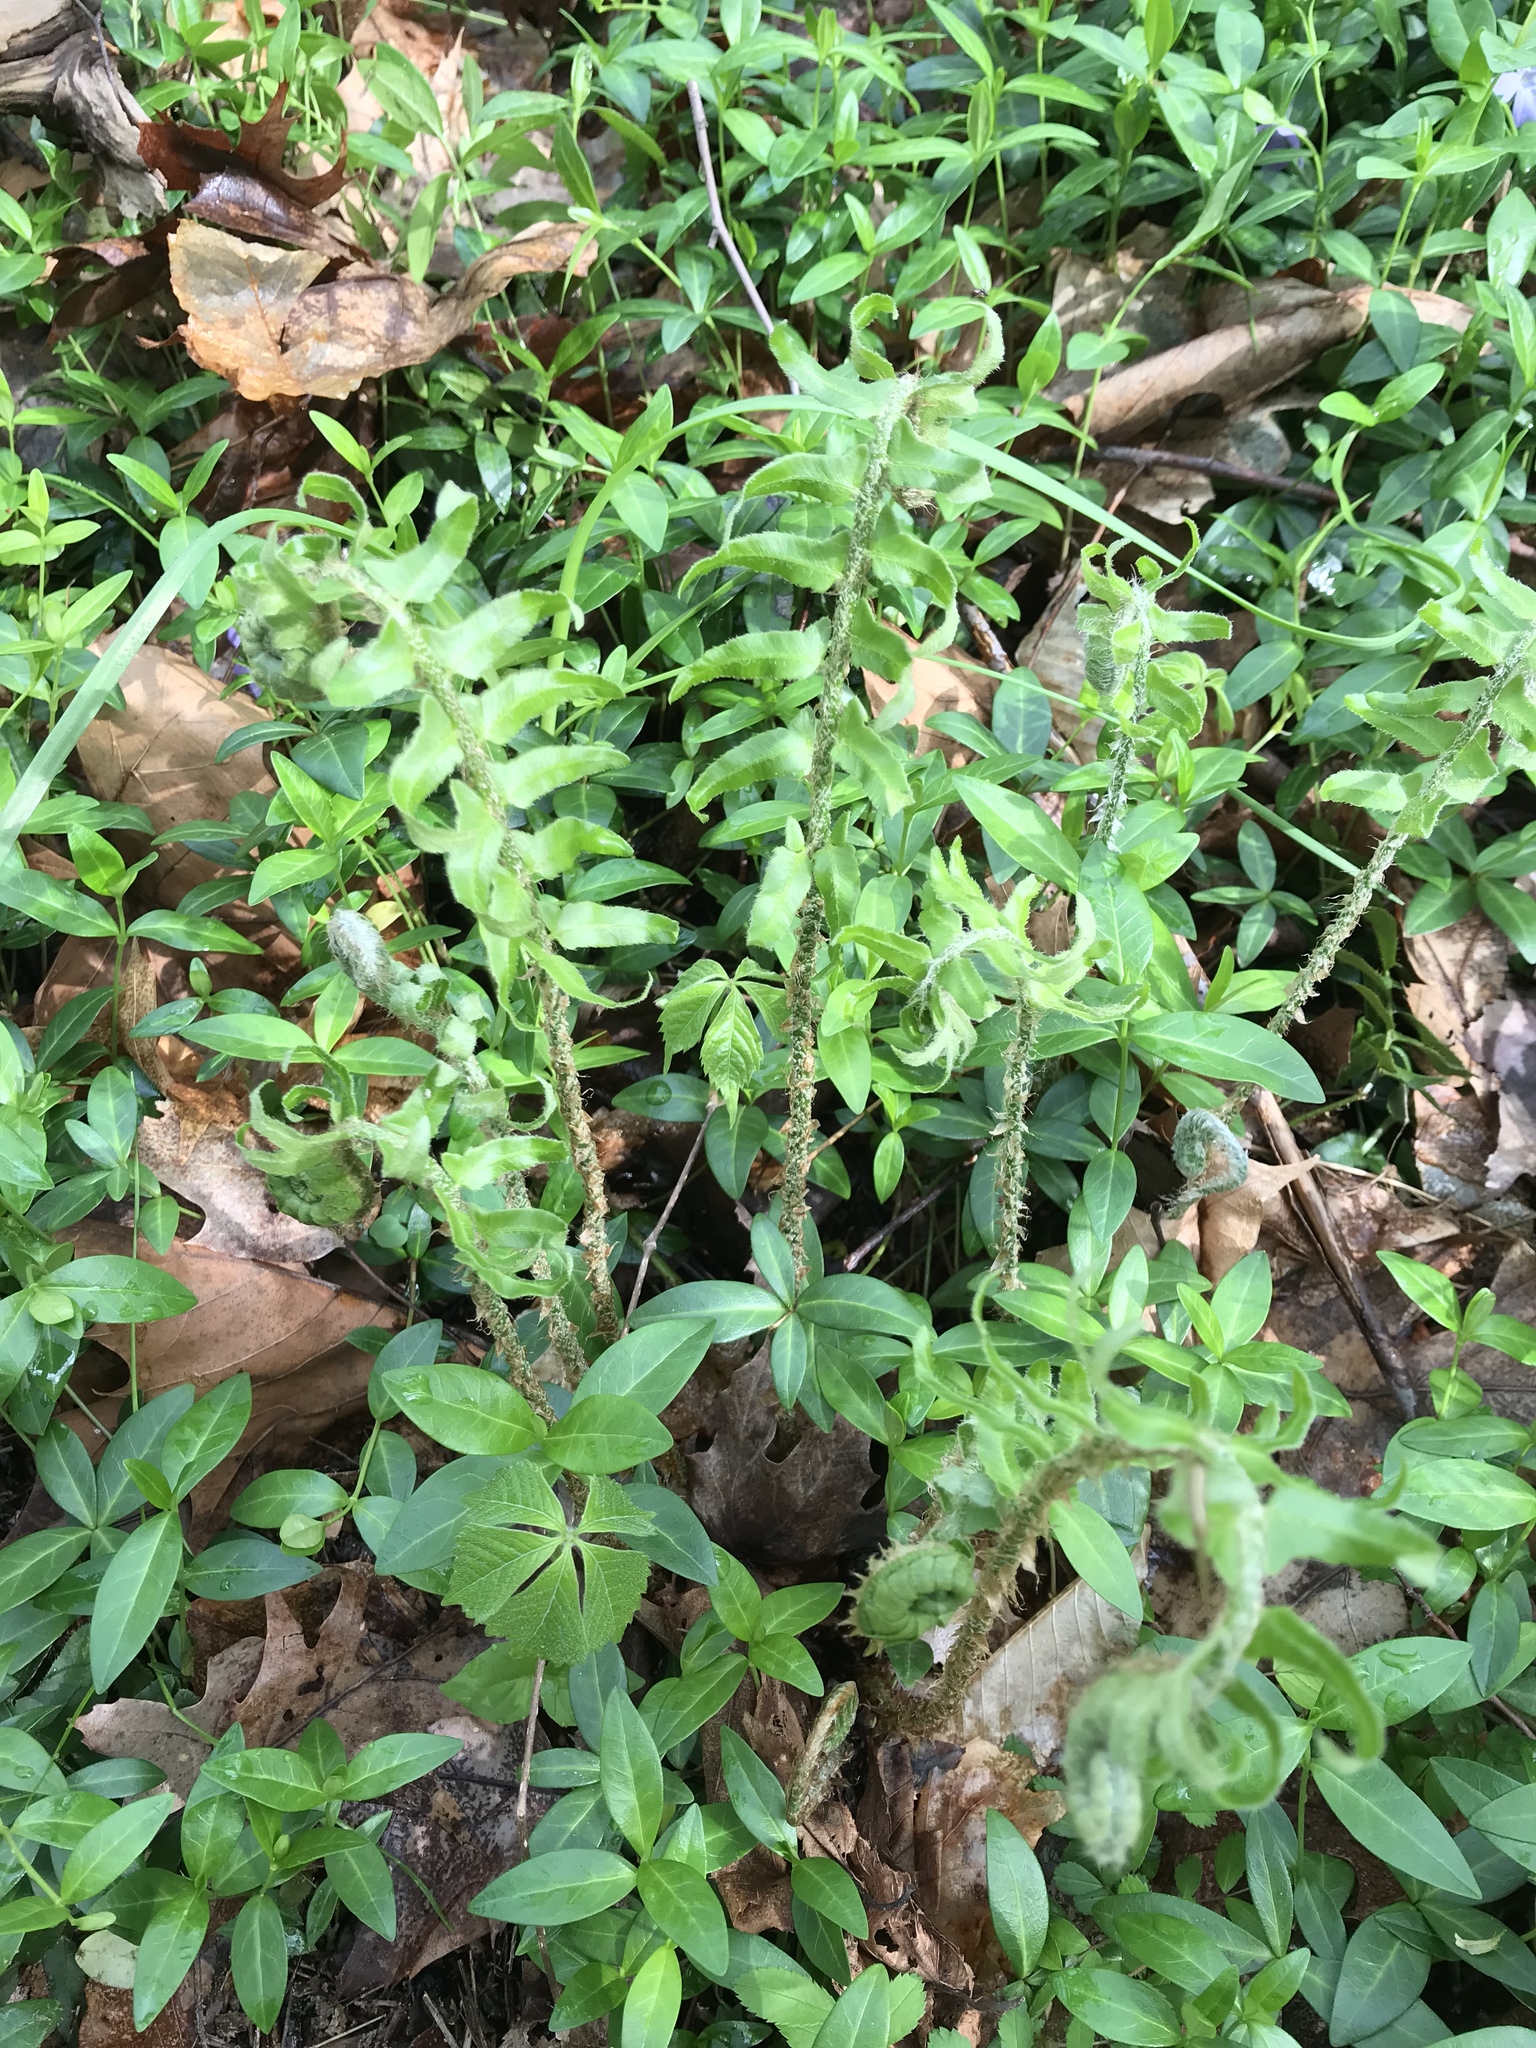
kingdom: Plantae
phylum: Tracheophyta
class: Polypodiopsida
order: Polypodiales
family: Dryopteridaceae
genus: Polystichum
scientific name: Polystichum acrostichoides
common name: Christmas fern
